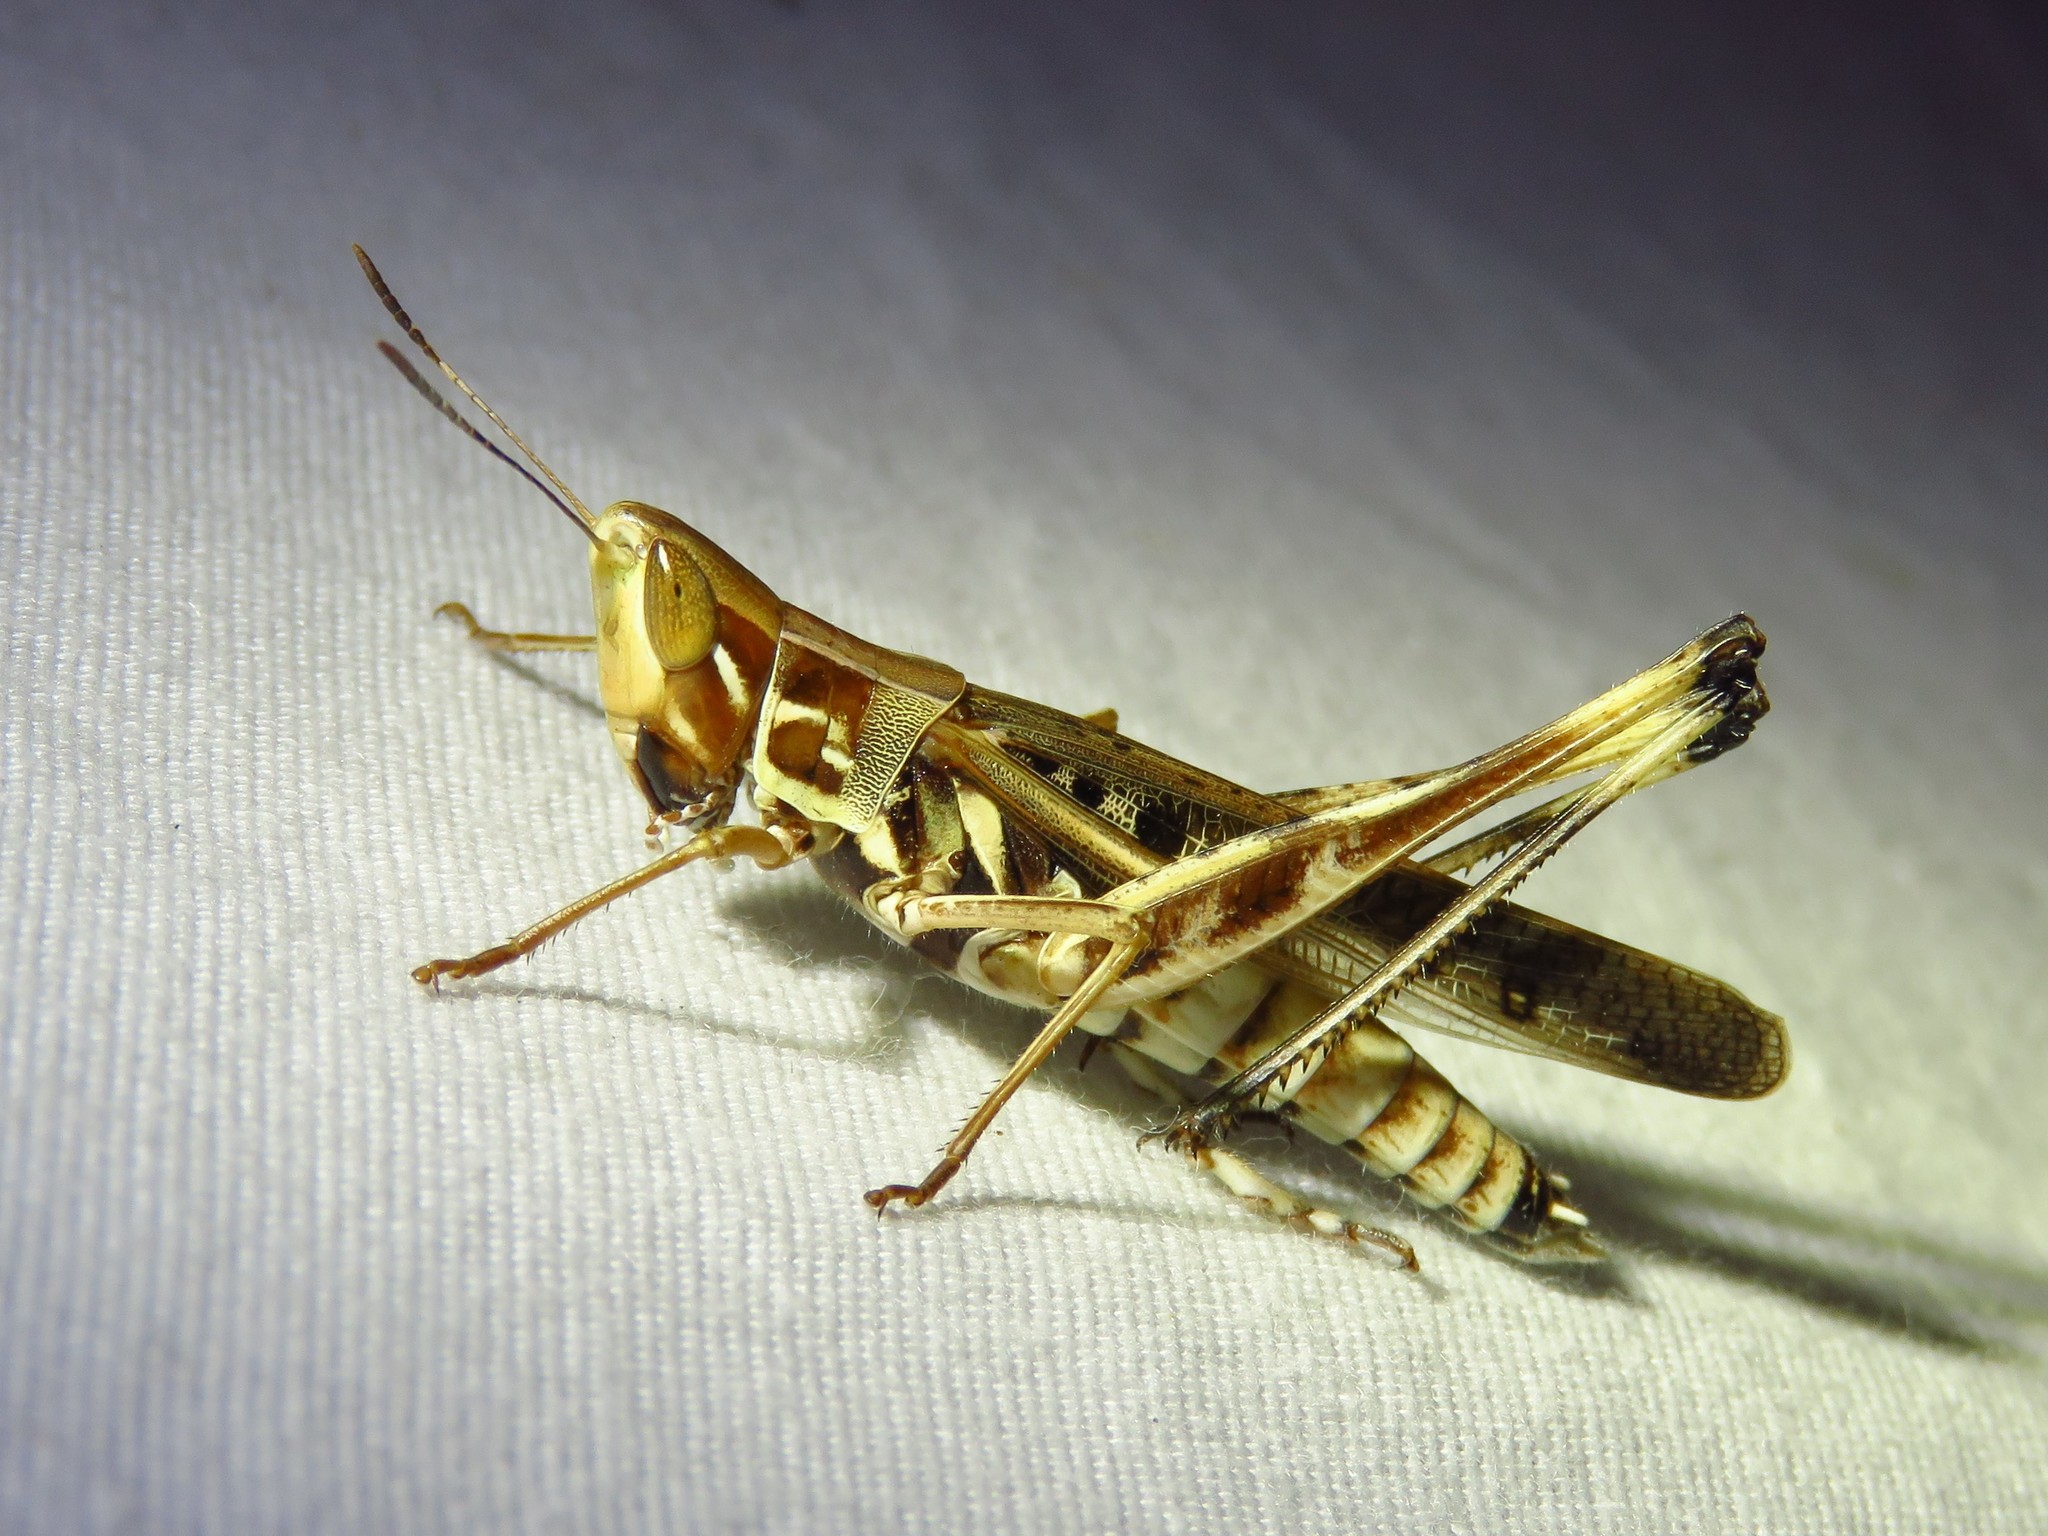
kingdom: Animalia
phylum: Arthropoda
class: Insecta
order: Orthoptera
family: Acrididae
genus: Syrbula
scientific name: Syrbula admirabilis
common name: Handsome grasshopper
